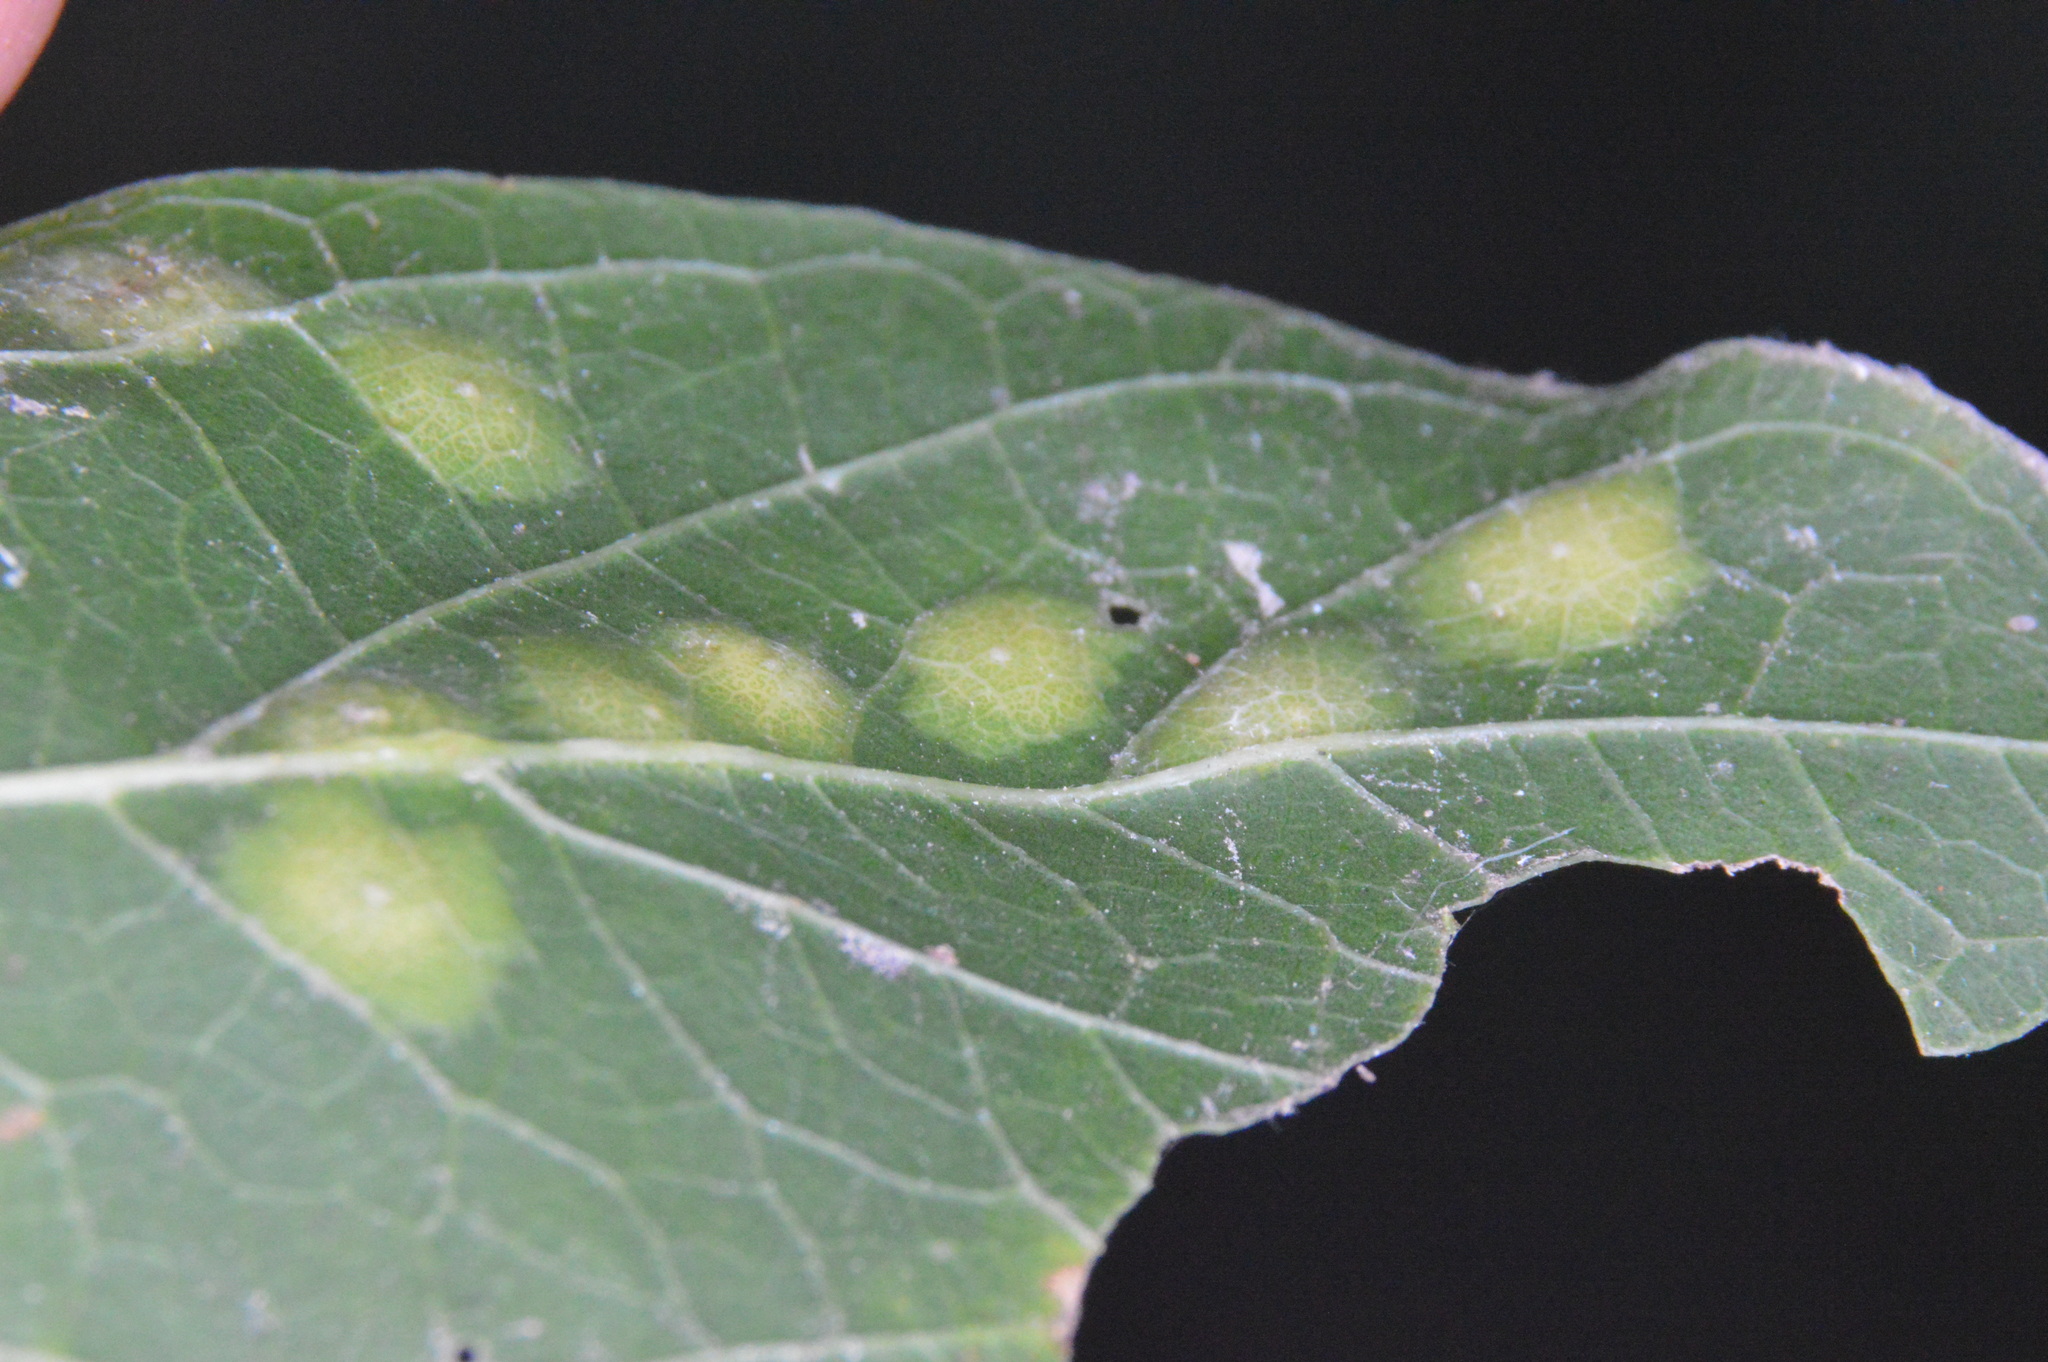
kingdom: Animalia
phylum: Arthropoda
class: Insecta
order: Hemiptera
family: Aphalaridae
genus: Pachypsylla
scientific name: Pachypsylla celtidisvesicula
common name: Hackberry blister gall psyllid
